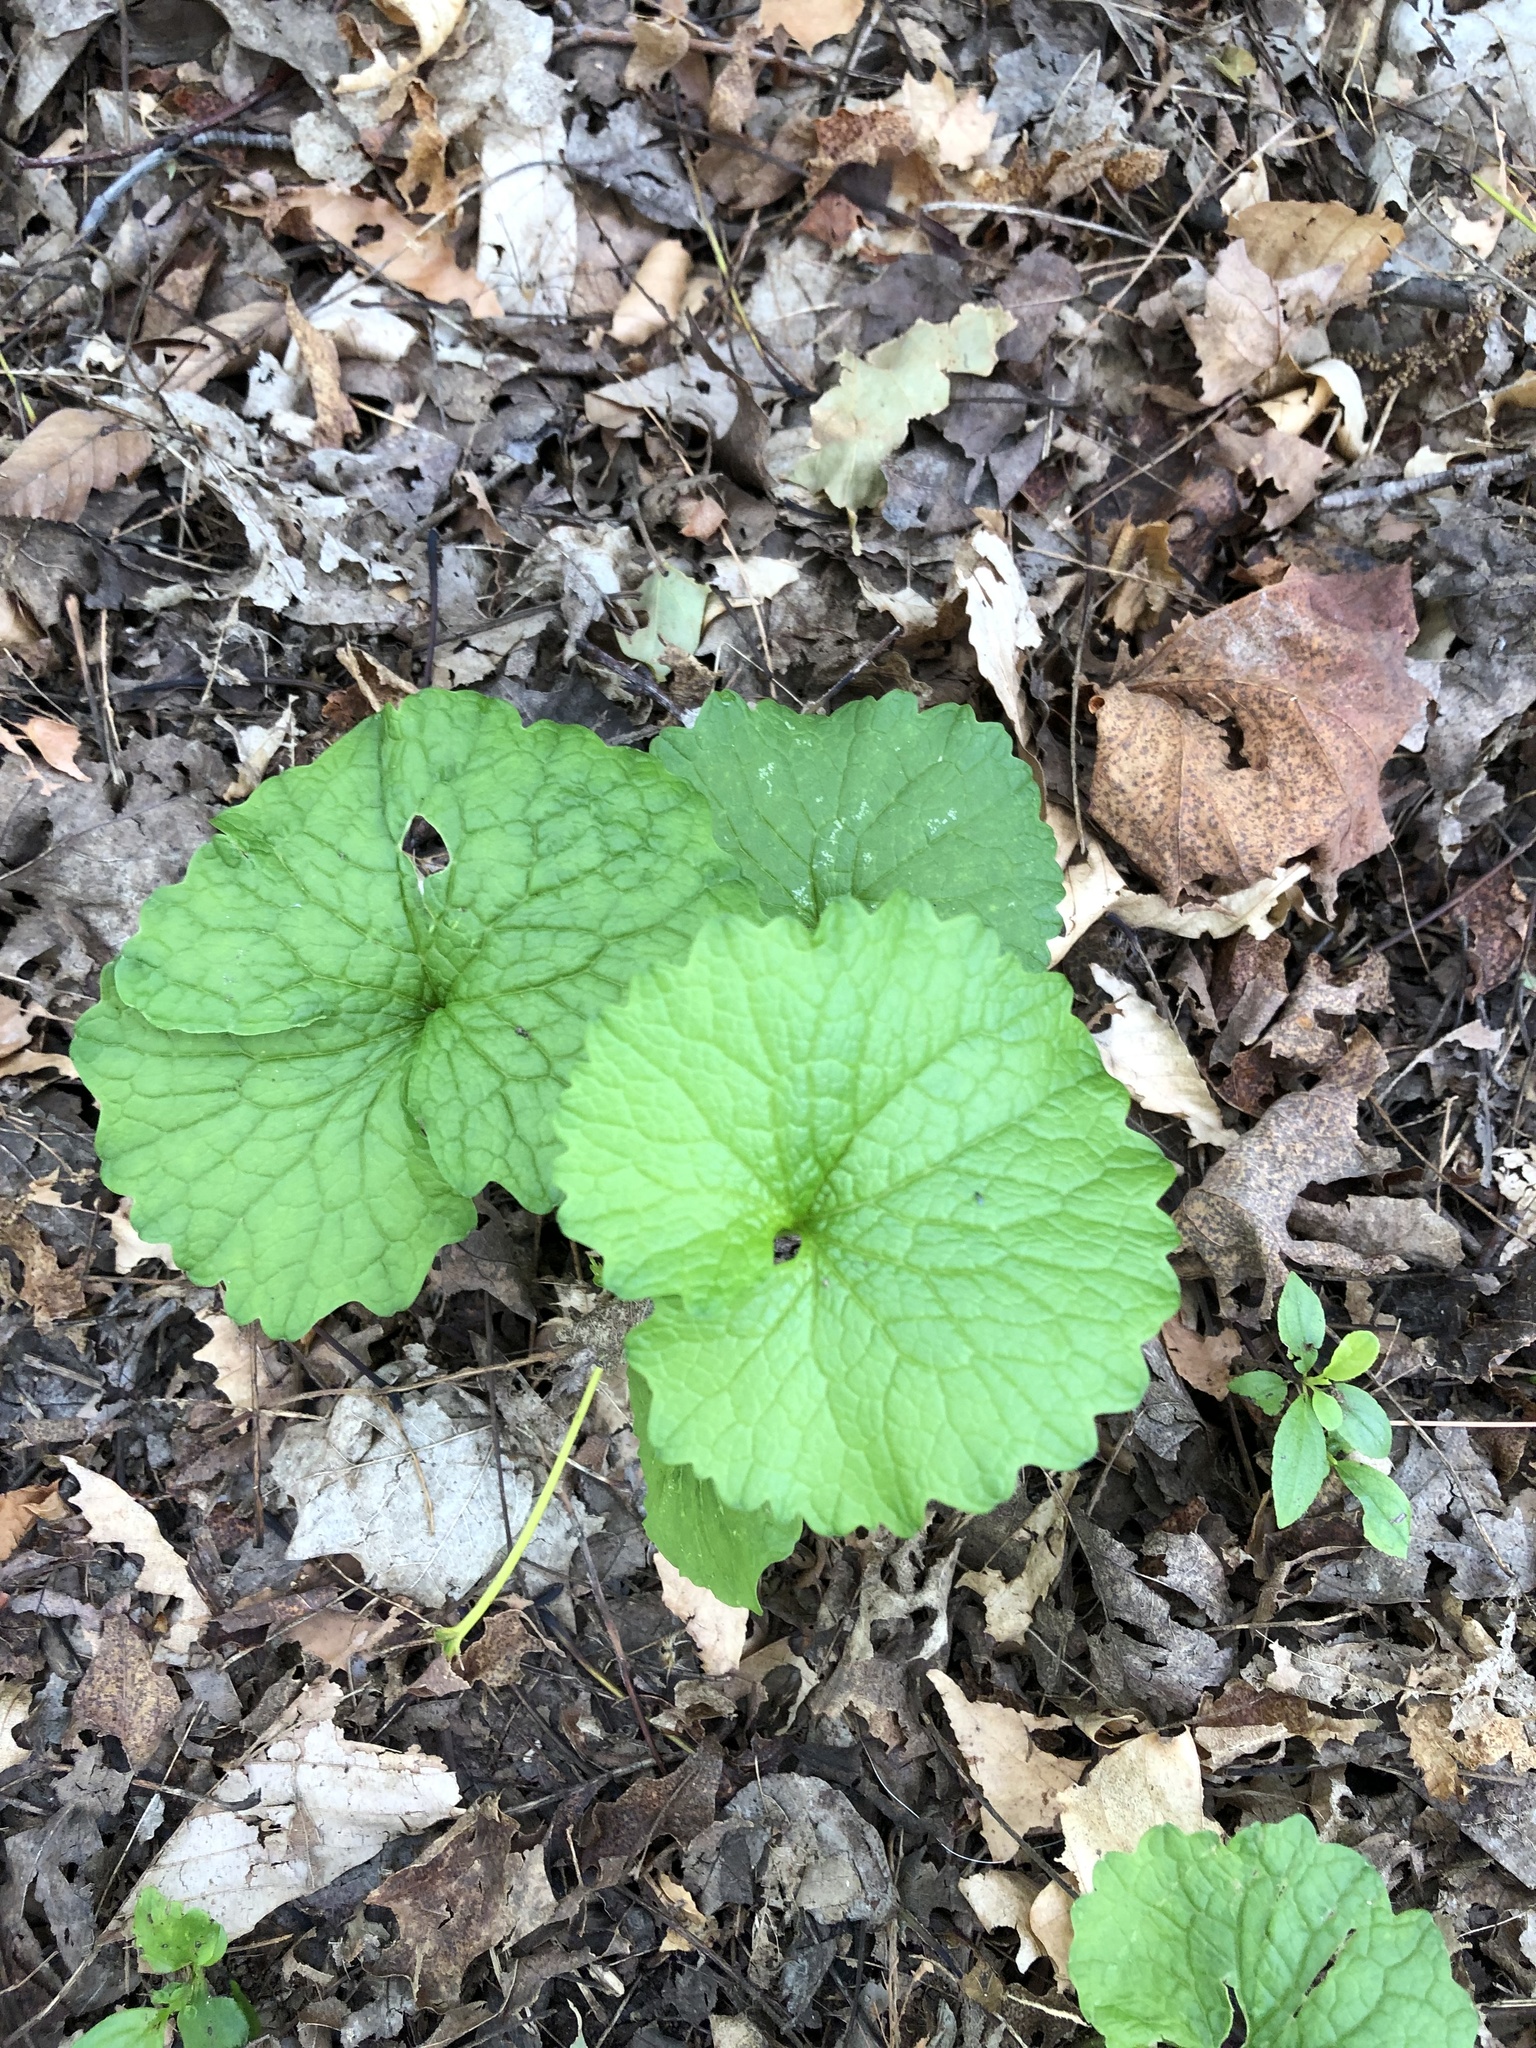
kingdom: Plantae
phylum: Tracheophyta
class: Magnoliopsida
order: Brassicales
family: Brassicaceae
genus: Alliaria
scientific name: Alliaria petiolata
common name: Garlic mustard
